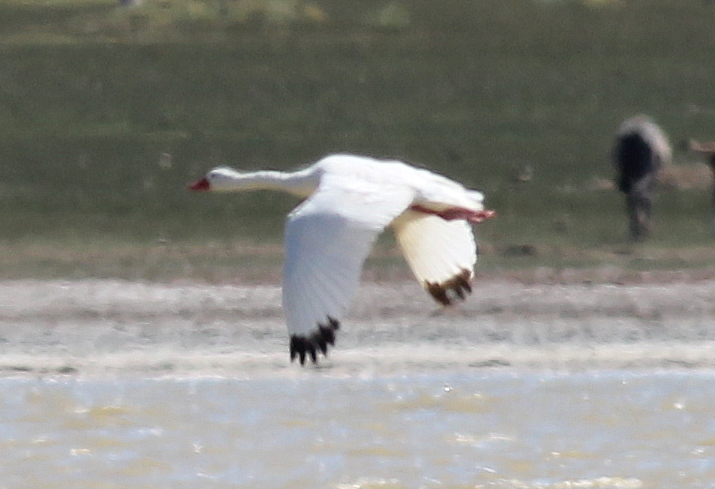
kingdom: Animalia
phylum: Chordata
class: Aves
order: Anseriformes
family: Anatidae
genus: Coscoroba
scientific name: Coscoroba coscoroba
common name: Coscoroba swan
